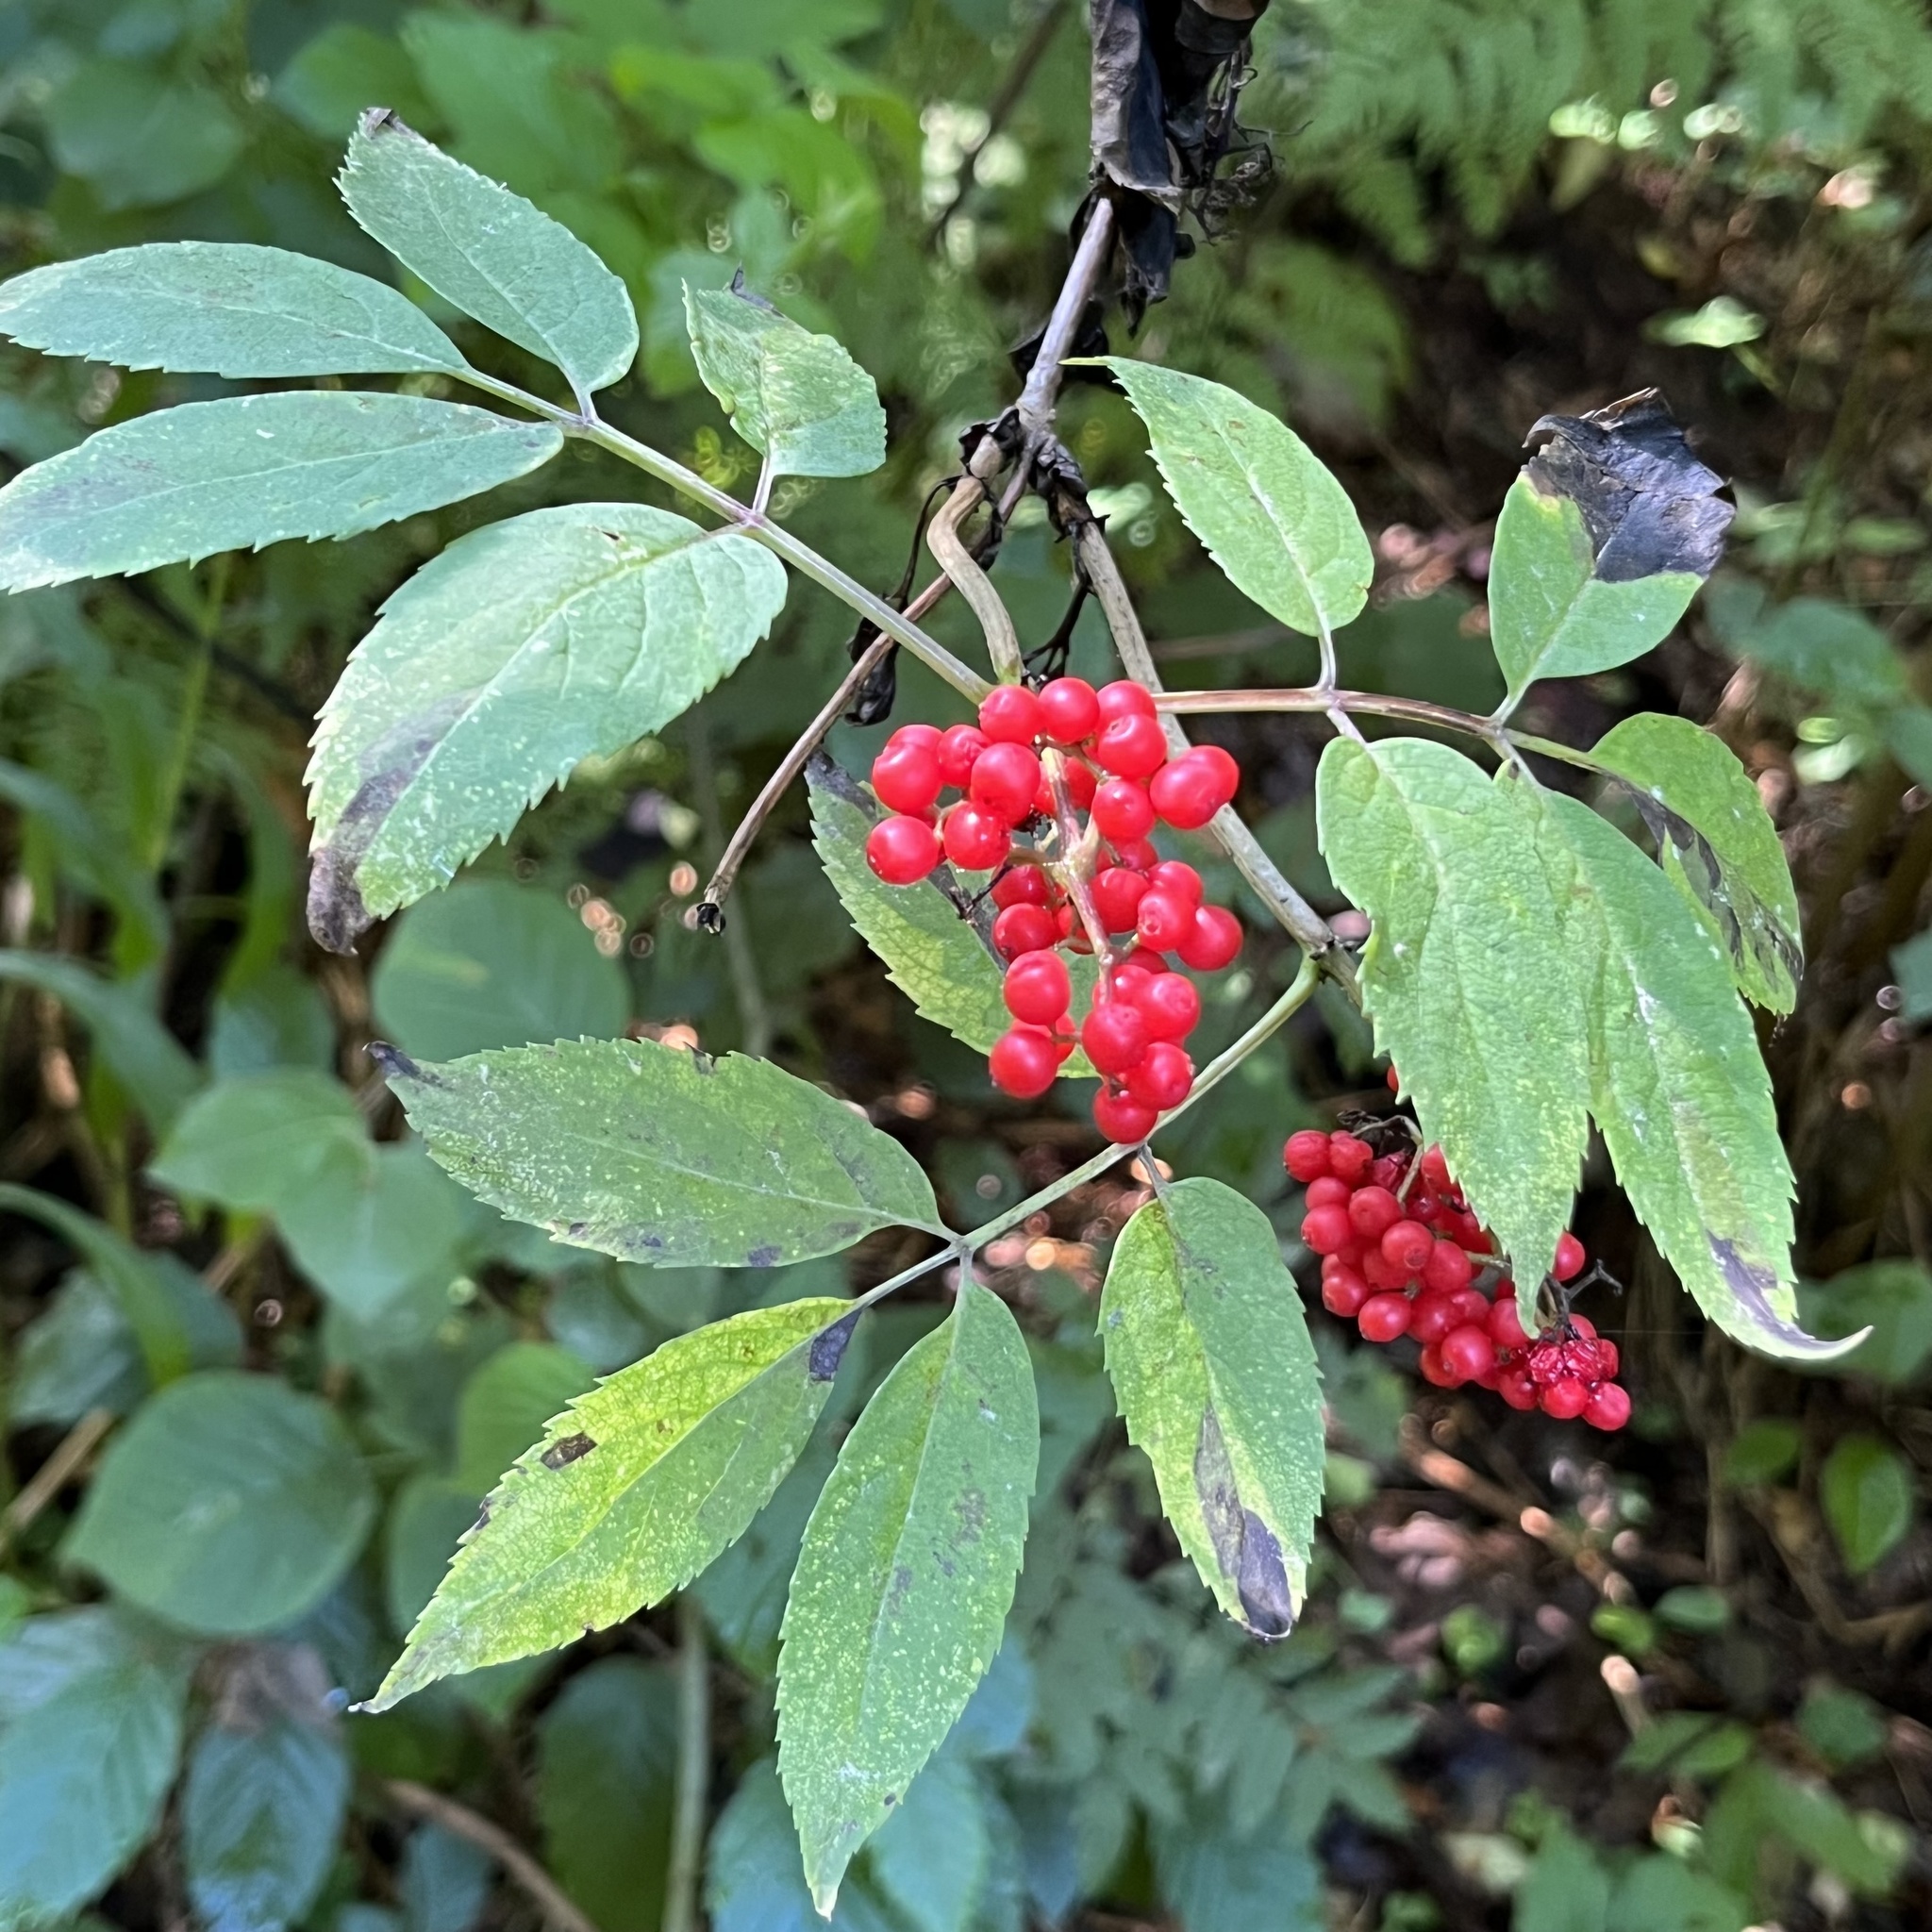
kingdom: Plantae
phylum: Tracheophyta
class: Magnoliopsida
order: Dipsacales
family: Viburnaceae
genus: Sambucus
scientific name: Sambucus racemosa
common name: Red-berried elder
